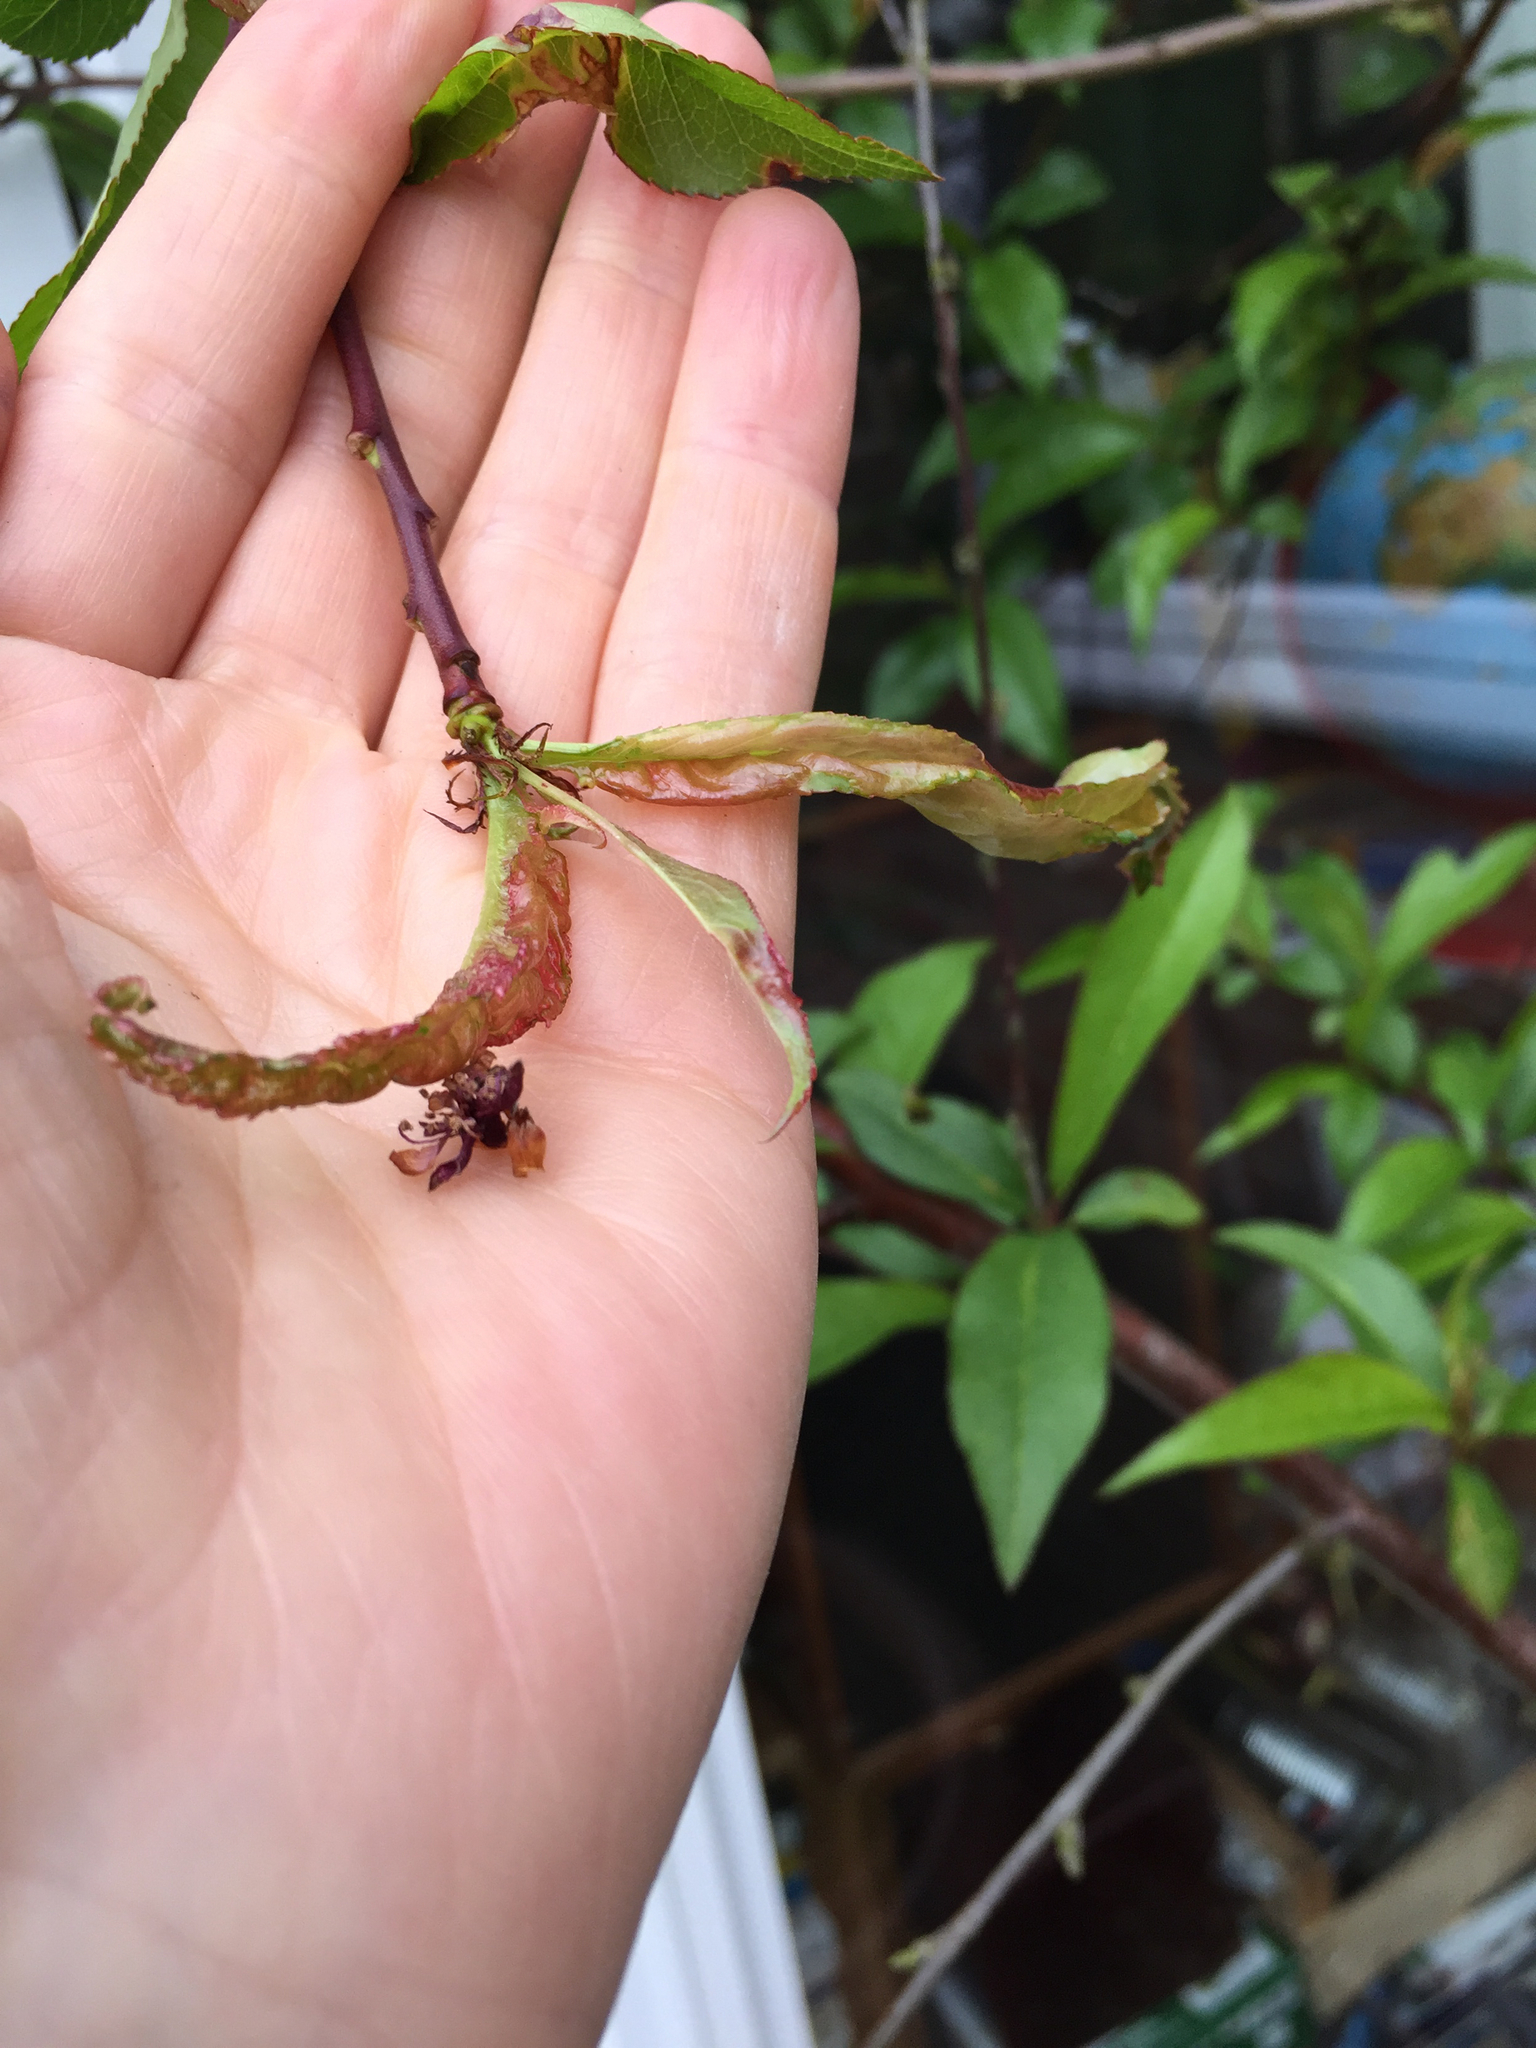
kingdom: Fungi
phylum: Ascomycota
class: Taphrinomycetes
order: Taphrinales
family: Taphrinaceae
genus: Taphrina
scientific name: Taphrina deformans
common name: Peach leaf curl
